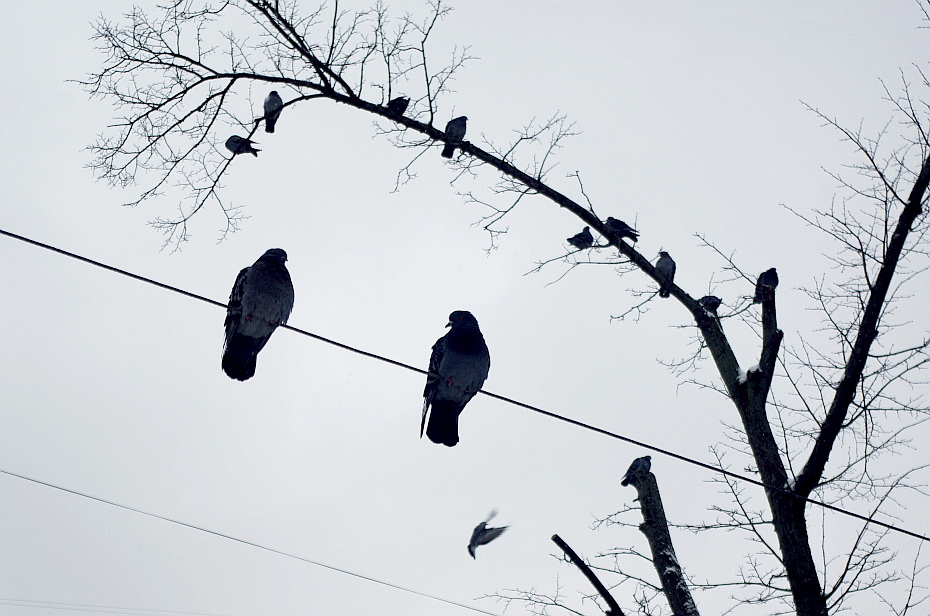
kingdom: Animalia
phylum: Chordata
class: Aves
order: Columbiformes
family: Columbidae
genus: Columba
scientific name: Columba livia
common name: Rock pigeon
